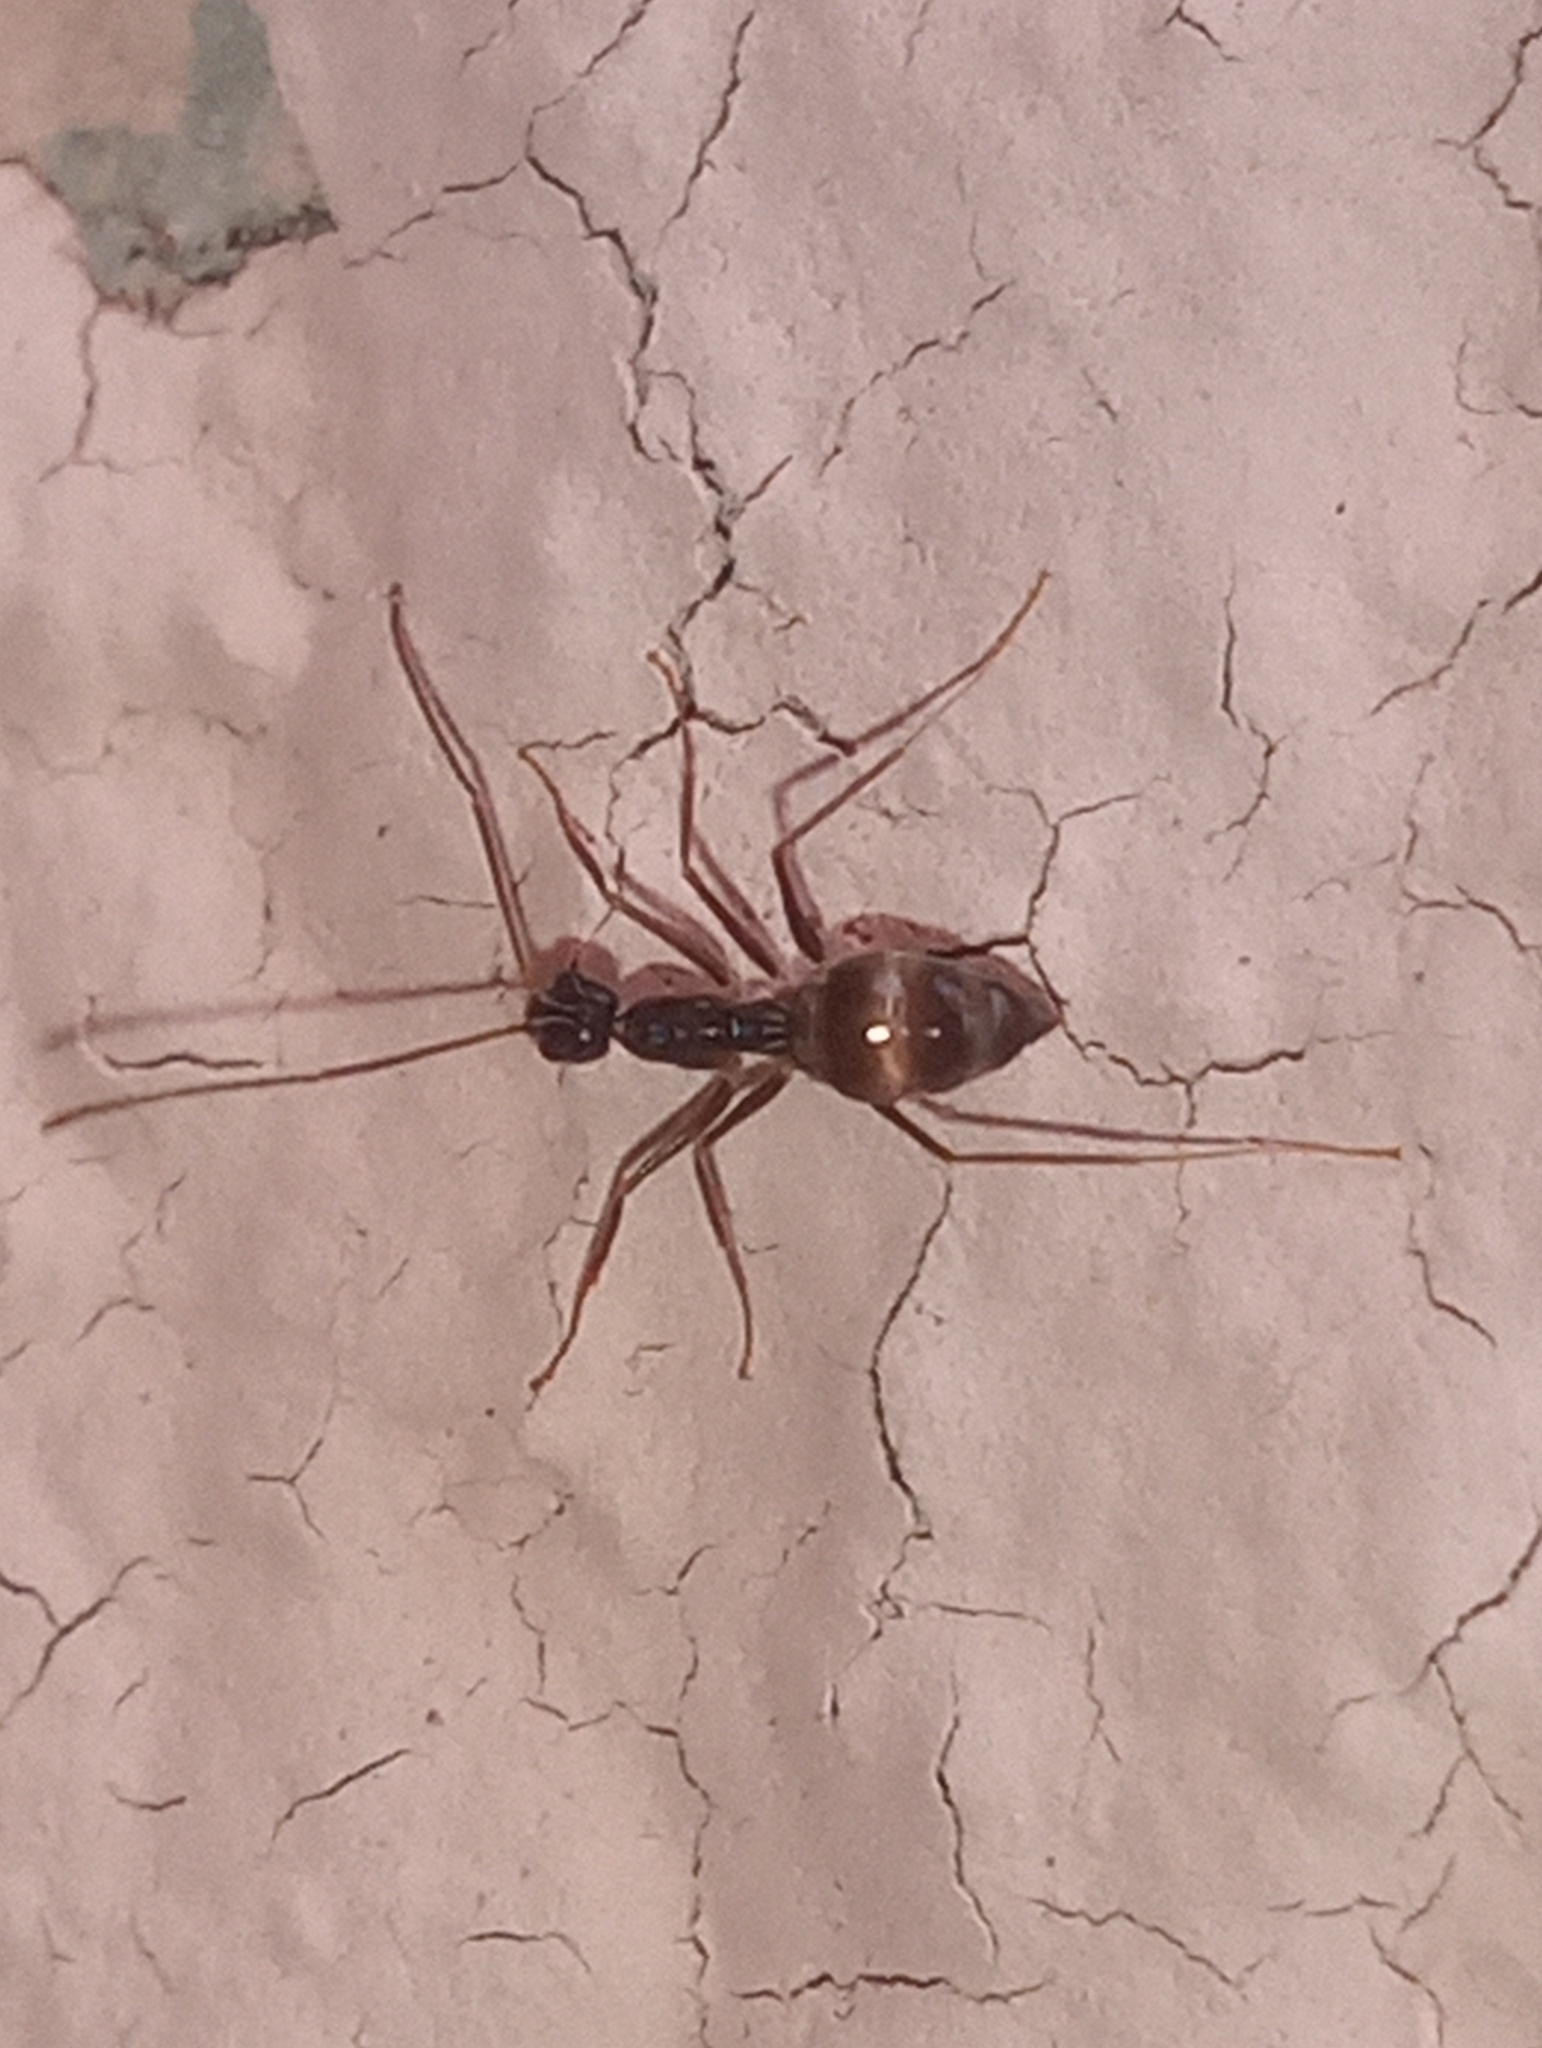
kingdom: Animalia
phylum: Arthropoda
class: Insecta
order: Hymenoptera
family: Formicidae
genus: Paratrechina
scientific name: Paratrechina longicornis
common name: Longhorned crazy ant
